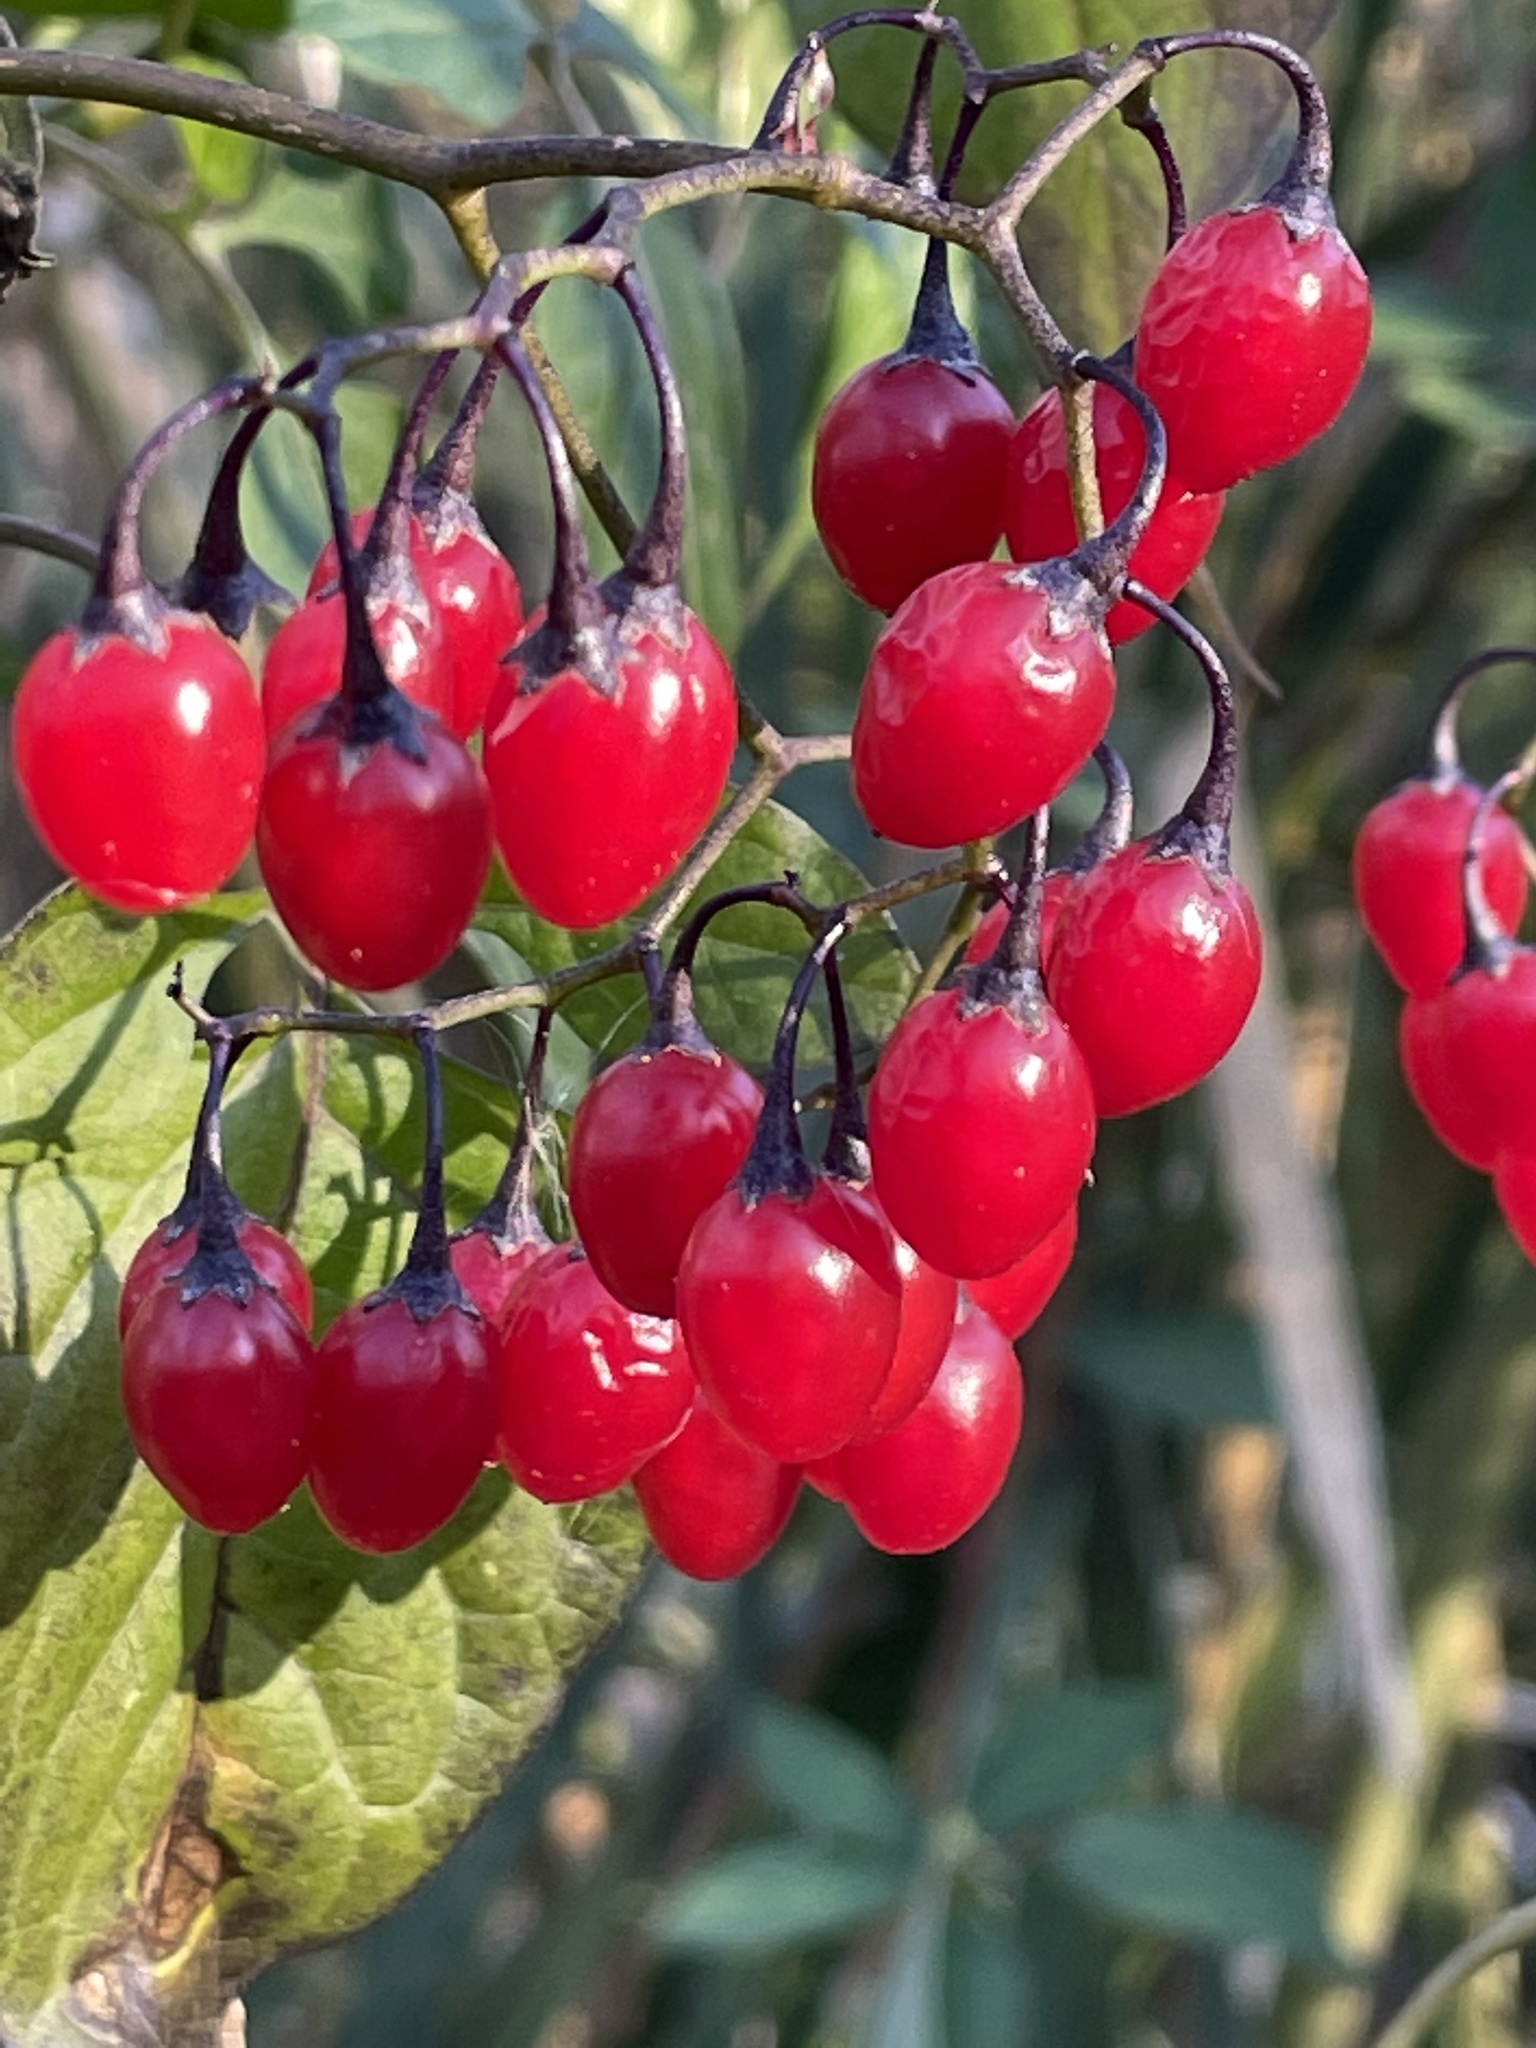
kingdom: Plantae
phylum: Tracheophyta
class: Magnoliopsida
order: Solanales
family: Solanaceae
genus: Solanum
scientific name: Solanum dulcamara
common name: Climbing nightshade
